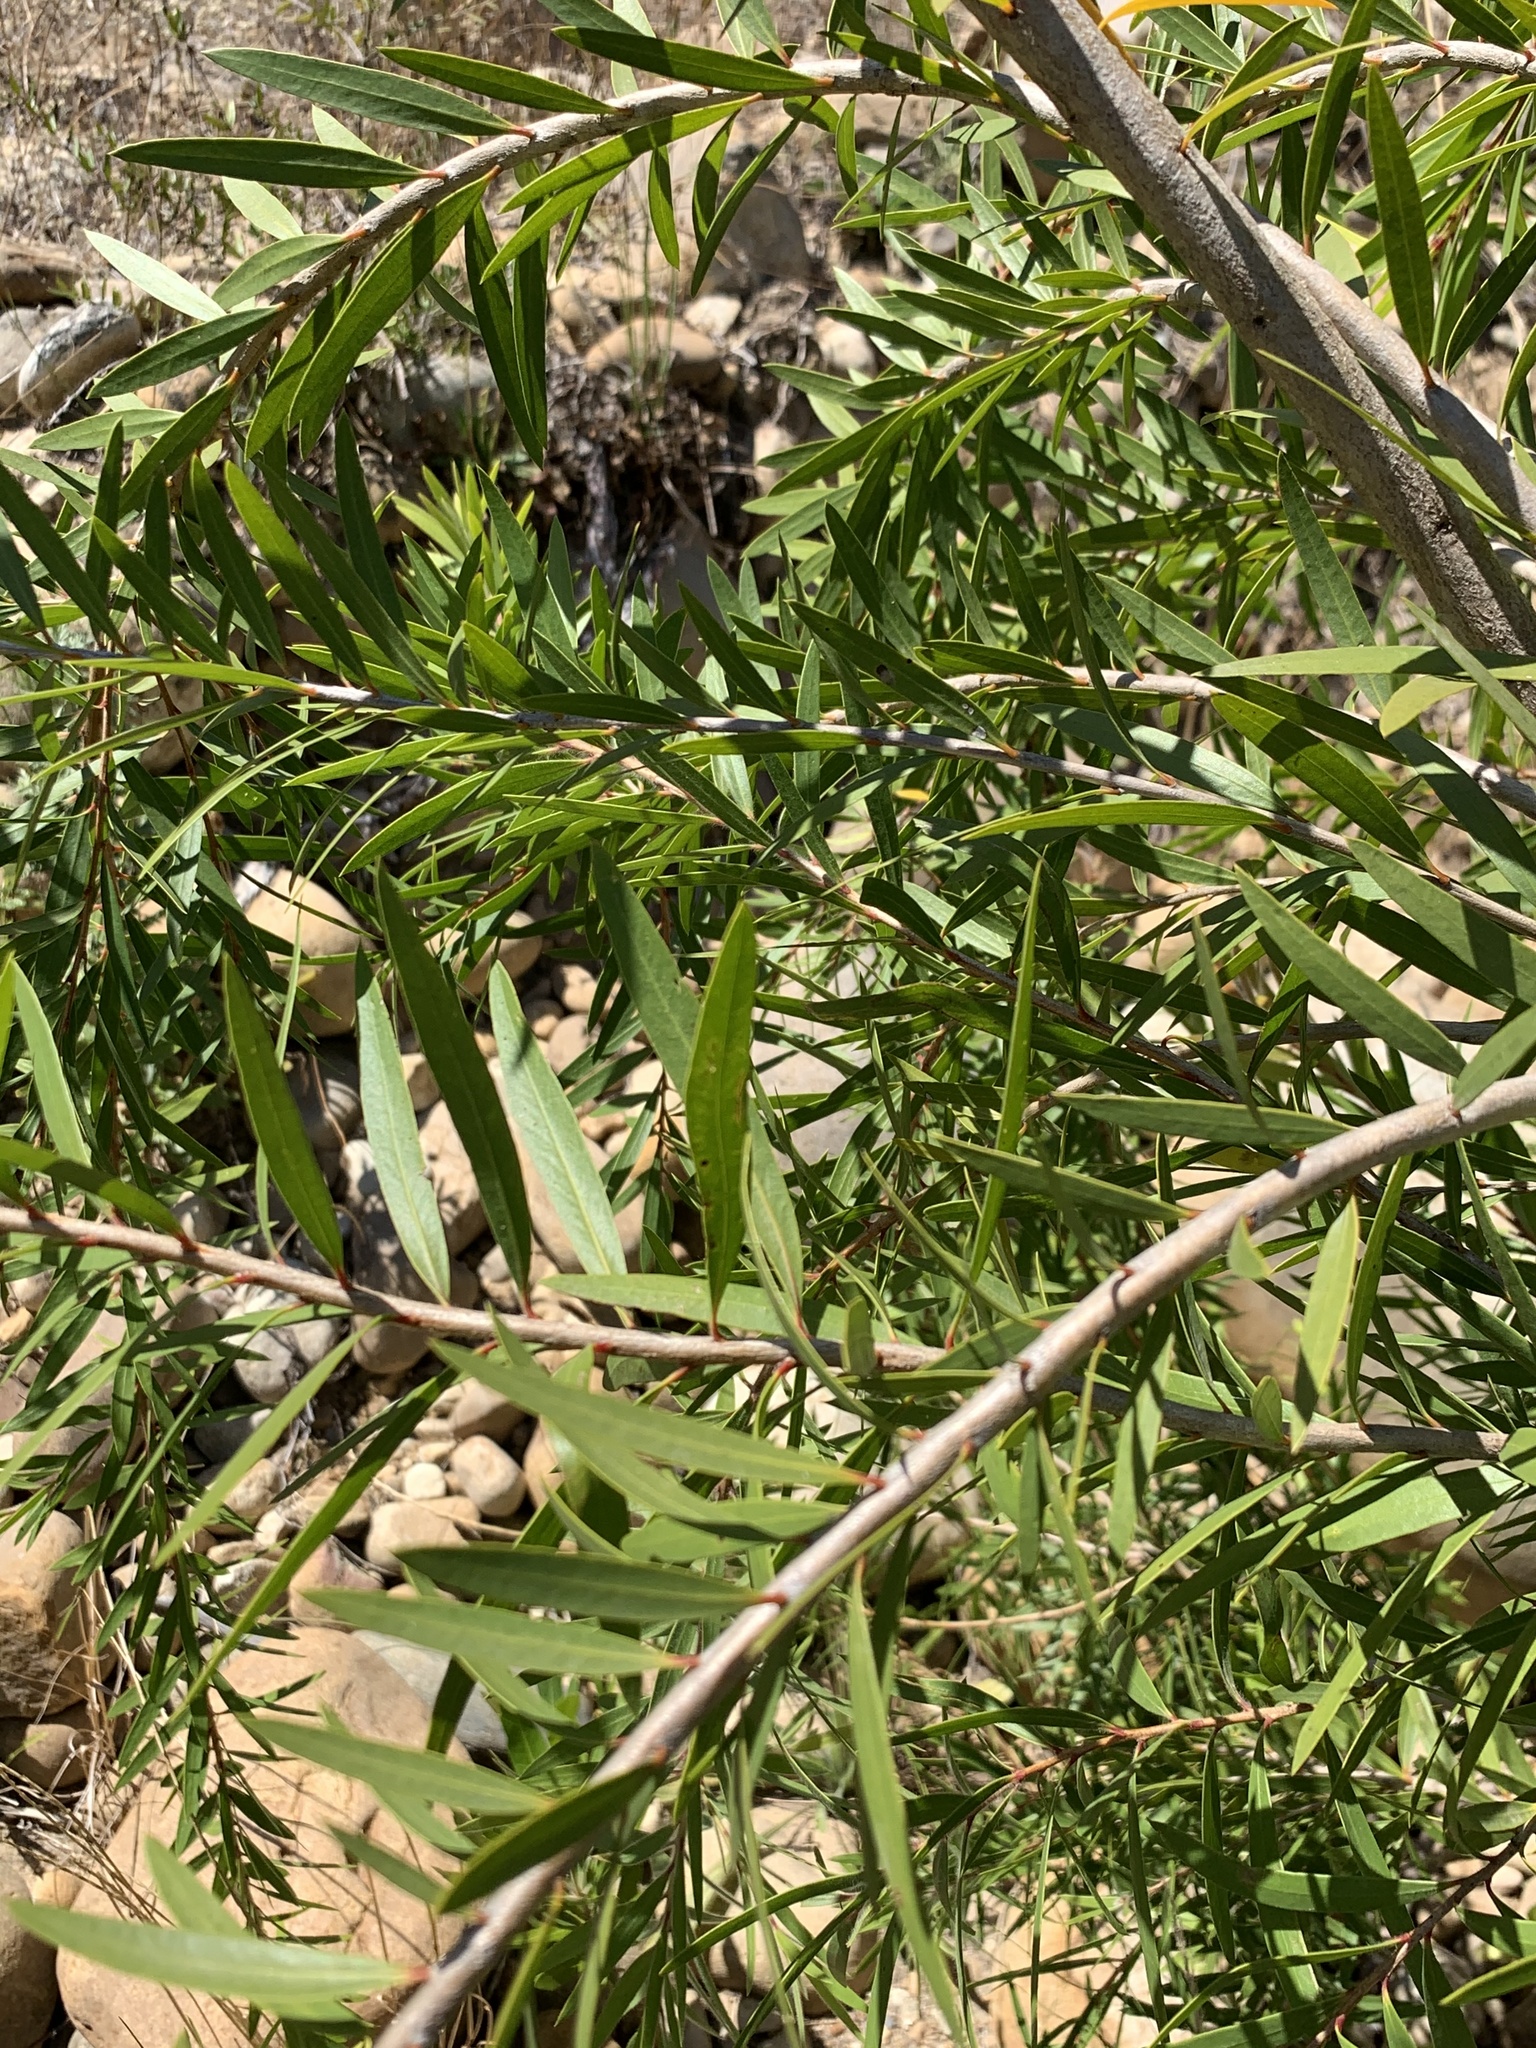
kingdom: Plantae
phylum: Tracheophyta
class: Magnoliopsida
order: Myrtales
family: Myrtaceae
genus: Callistemon
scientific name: Callistemon viminalis
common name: Drooping bottlebrush
